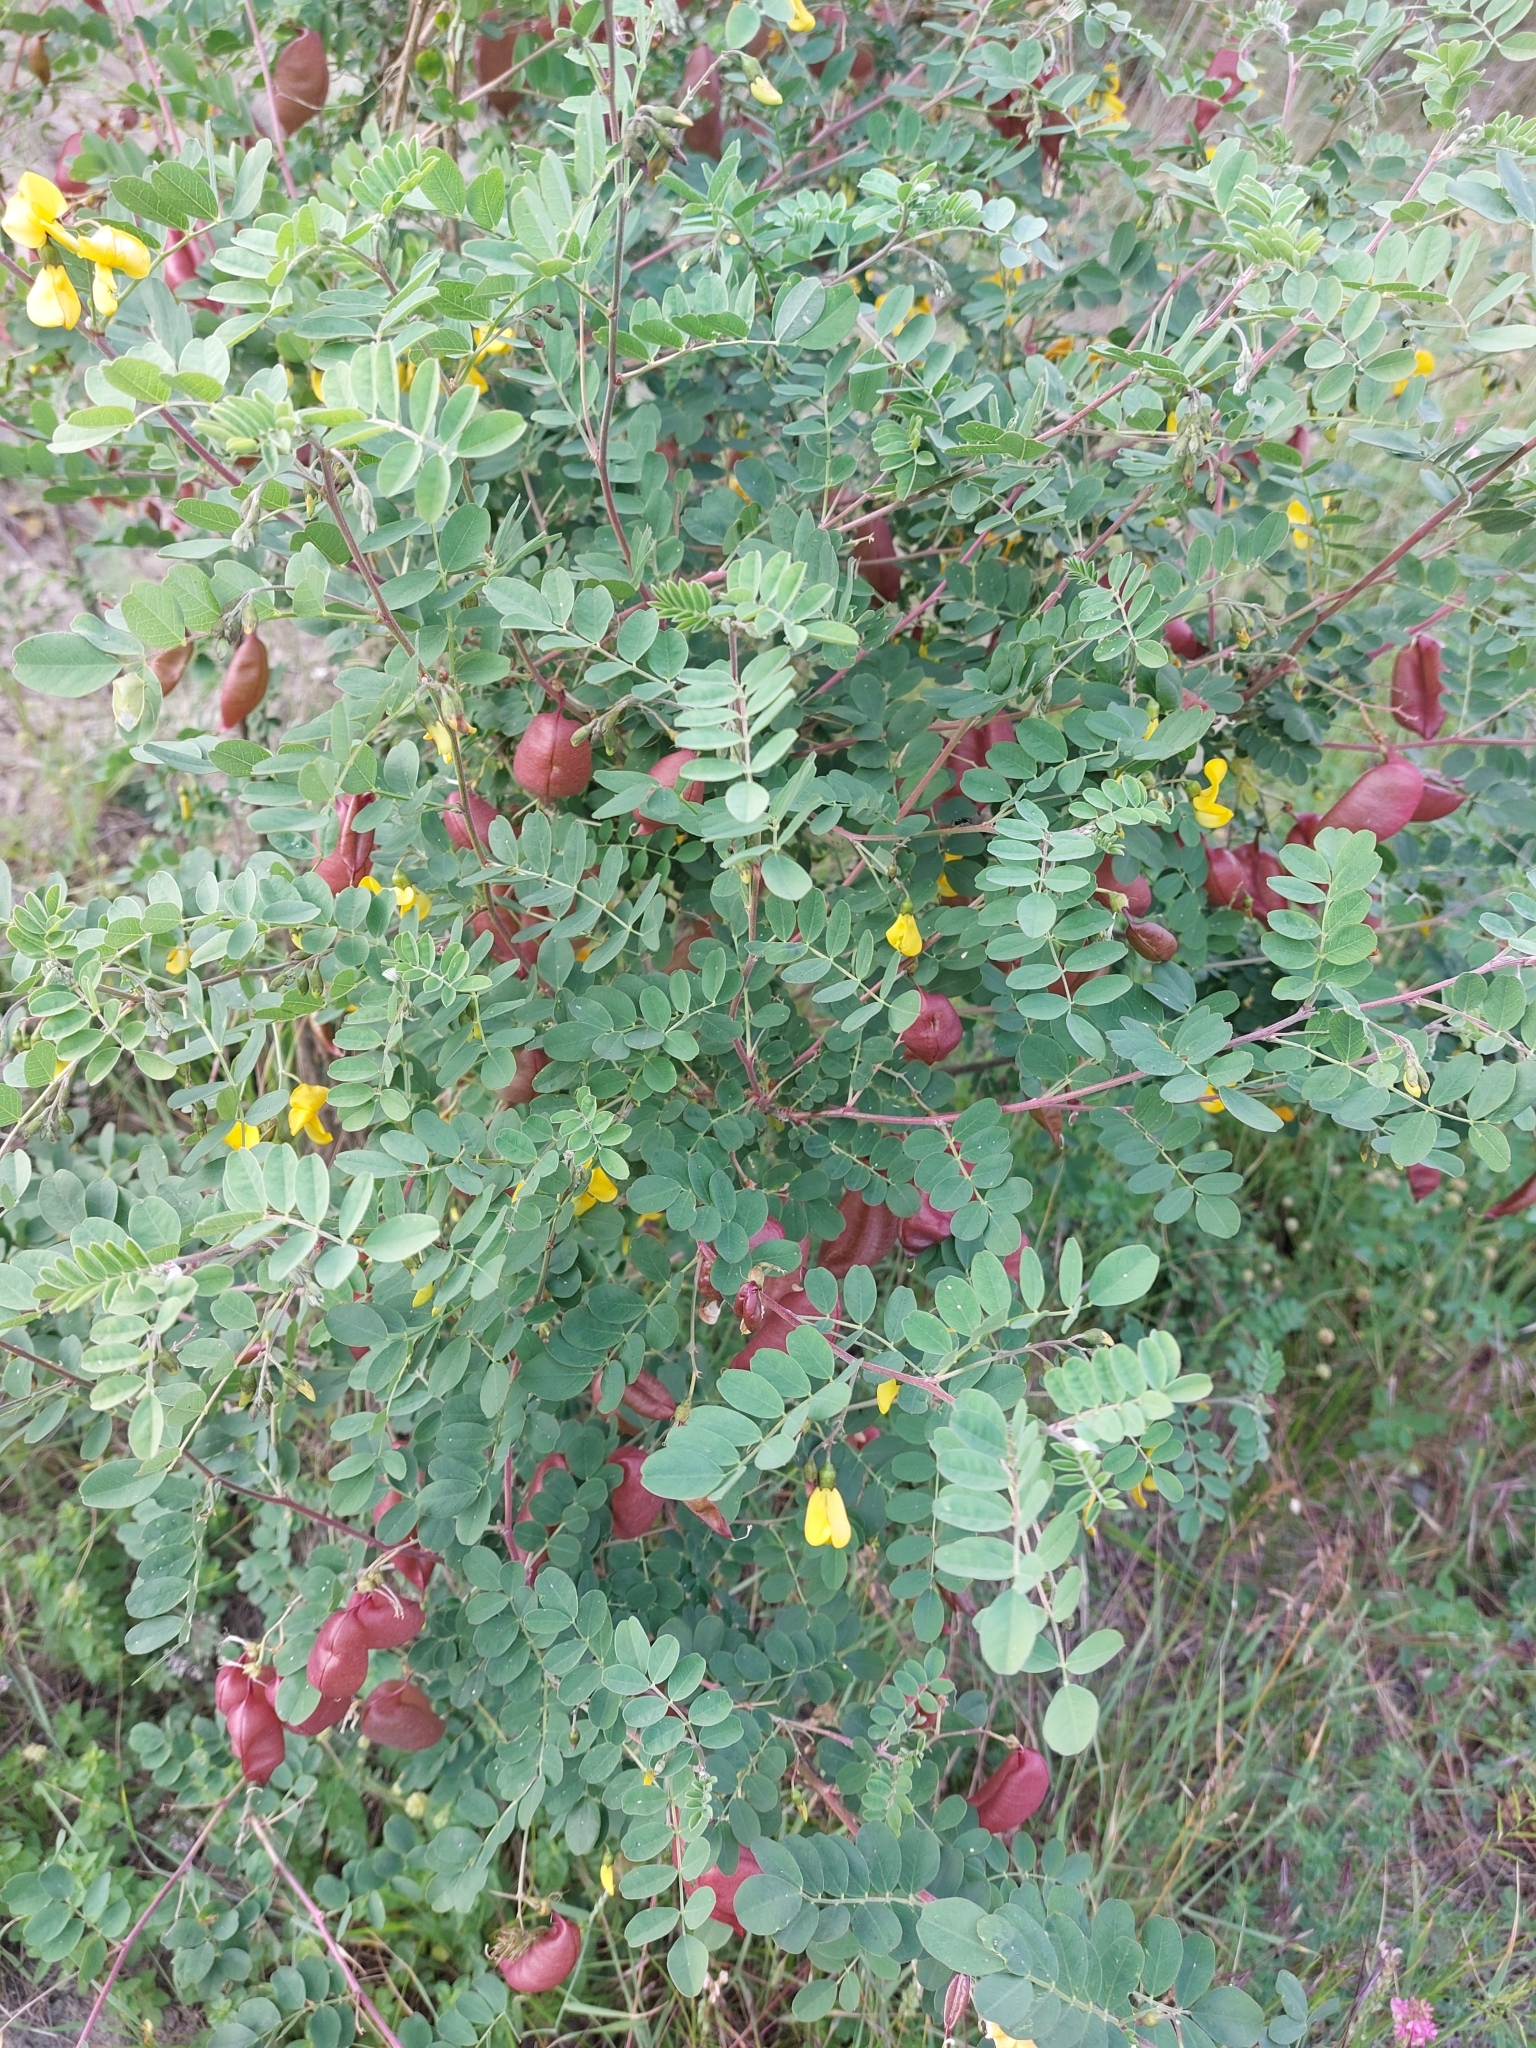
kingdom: Plantae
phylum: Tracheophyta
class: Magnoliopsida
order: Fabales
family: Fabaceae
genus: Colutea
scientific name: Colutea arborescens
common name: Bladder-senna
